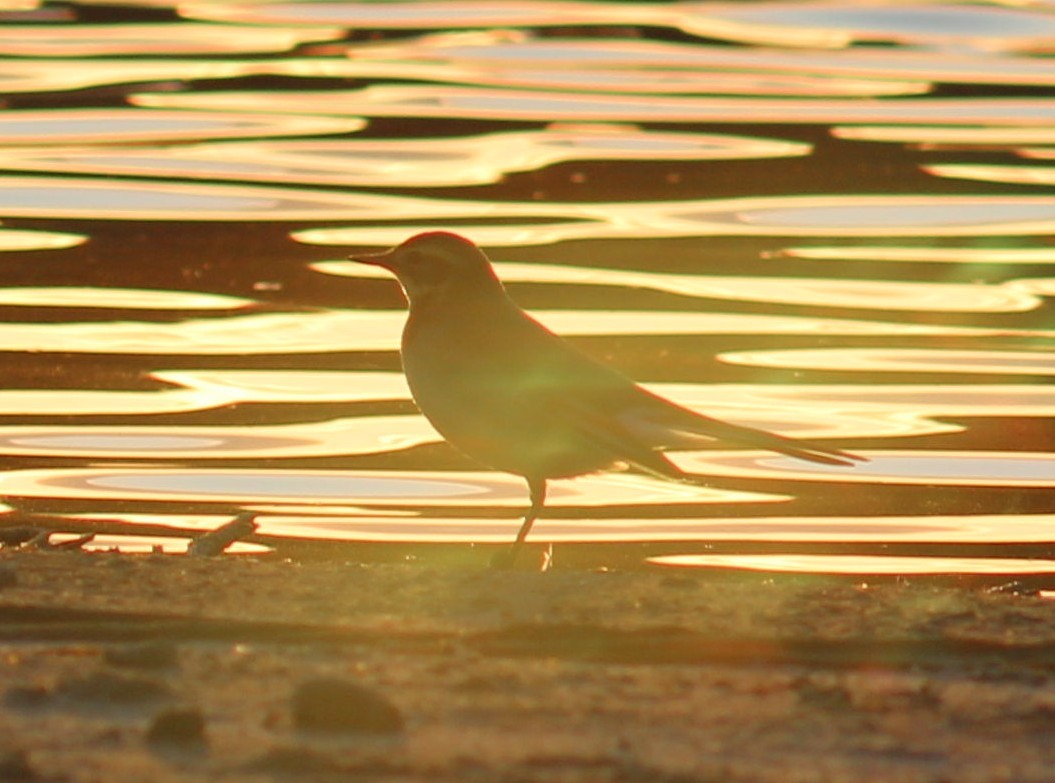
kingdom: Animalia
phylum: Chordata
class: Aves
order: Passeriformes
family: Motacillidae
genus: Motacilla
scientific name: Motacilla alba
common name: White wagtail
